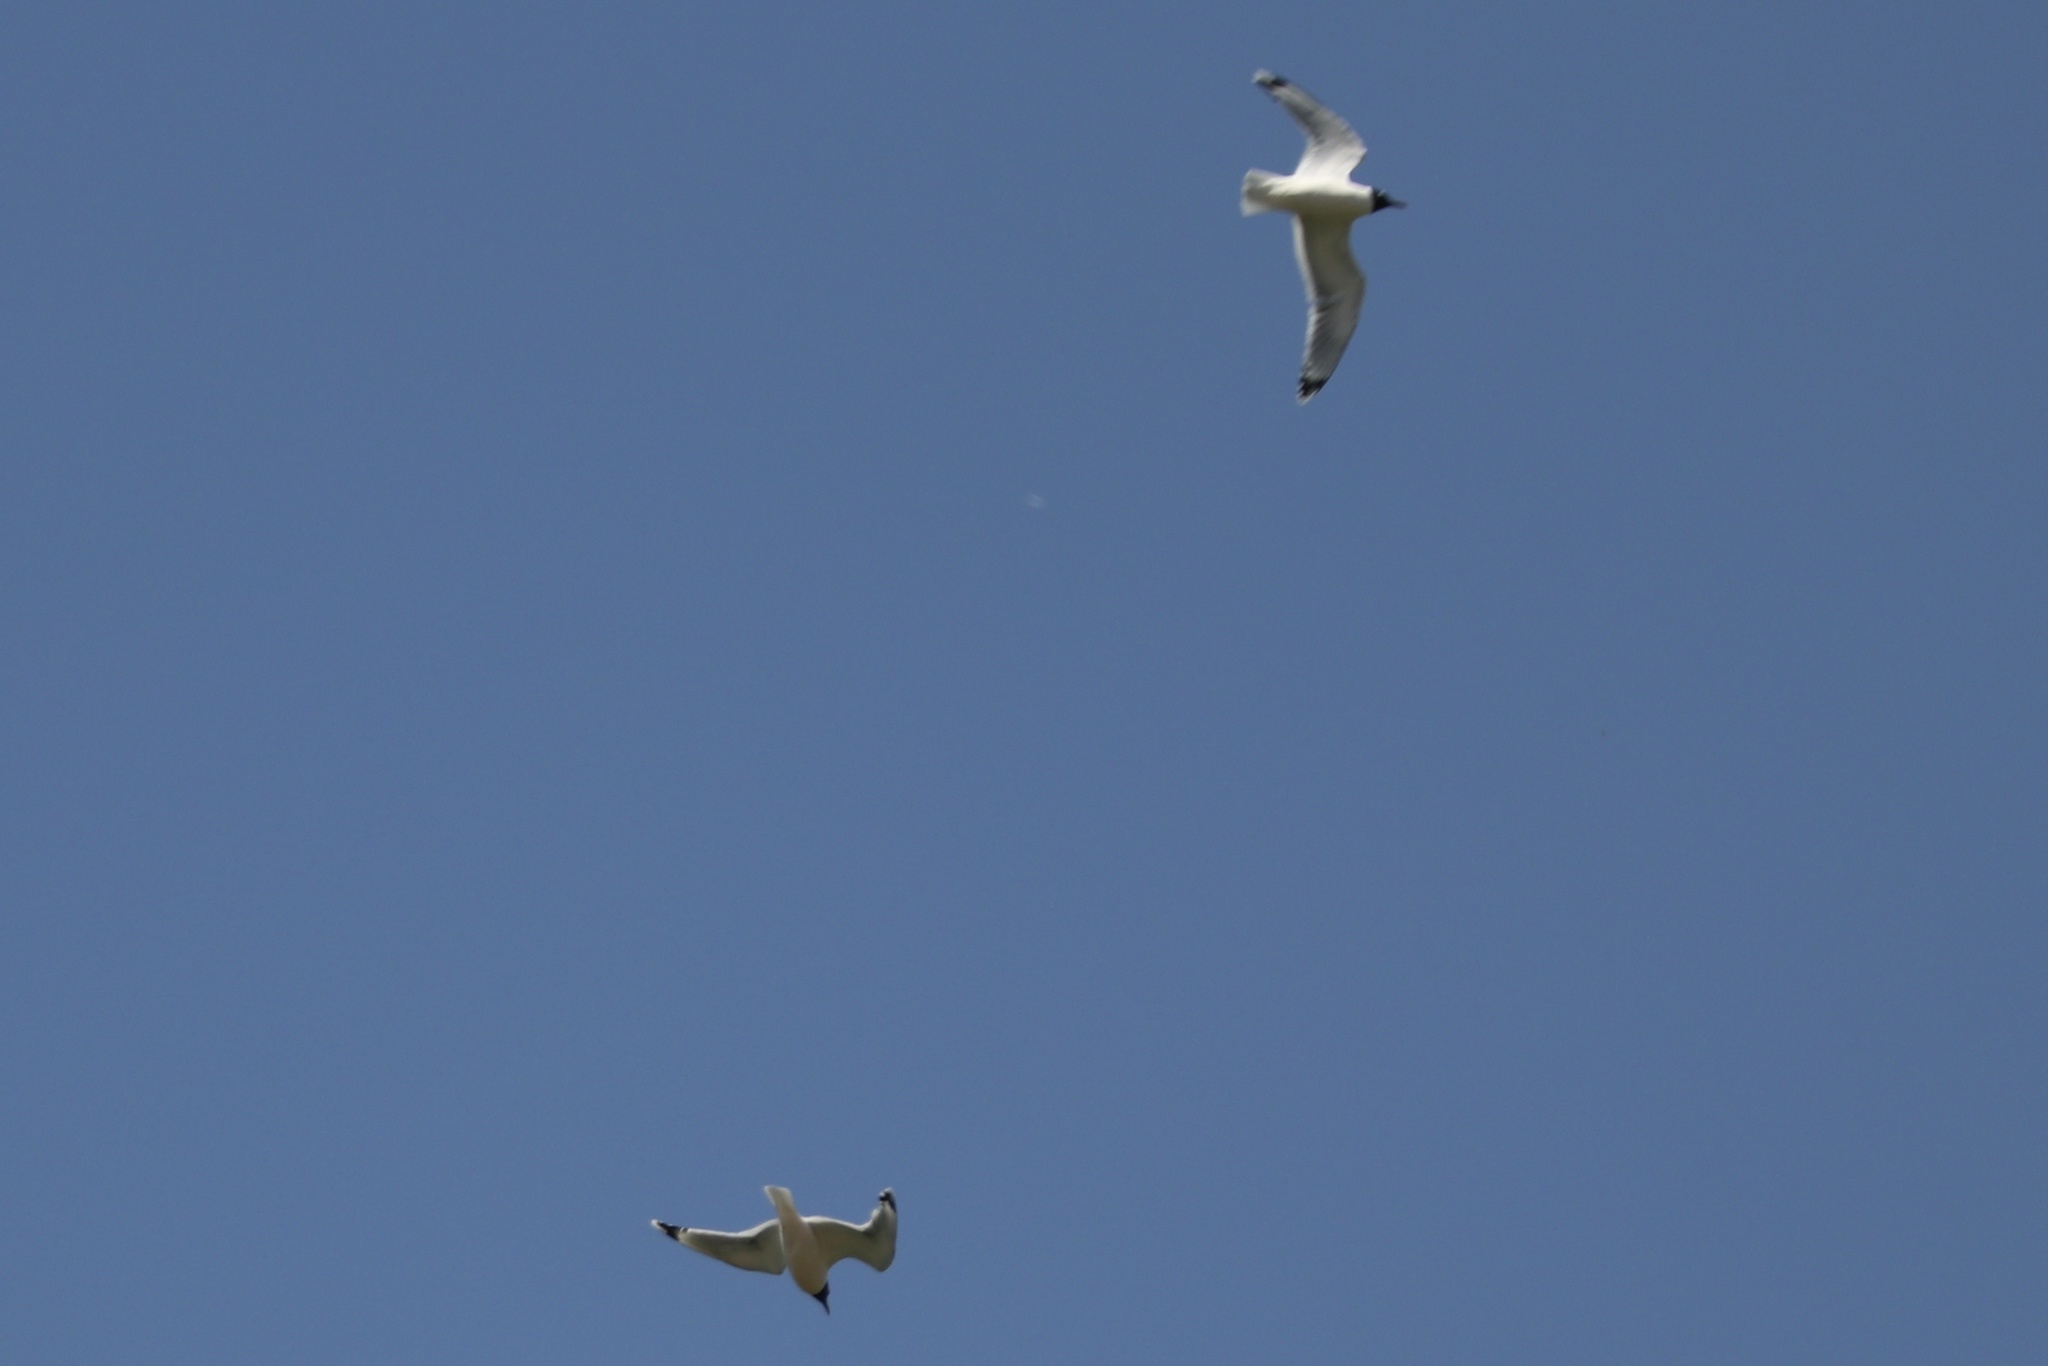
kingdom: Animalia
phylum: Chordata
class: Aves
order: Charadriiformes
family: Laridae
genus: Leucophaeus
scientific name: Leucophaeus pipixcan
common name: Franklin's gull
